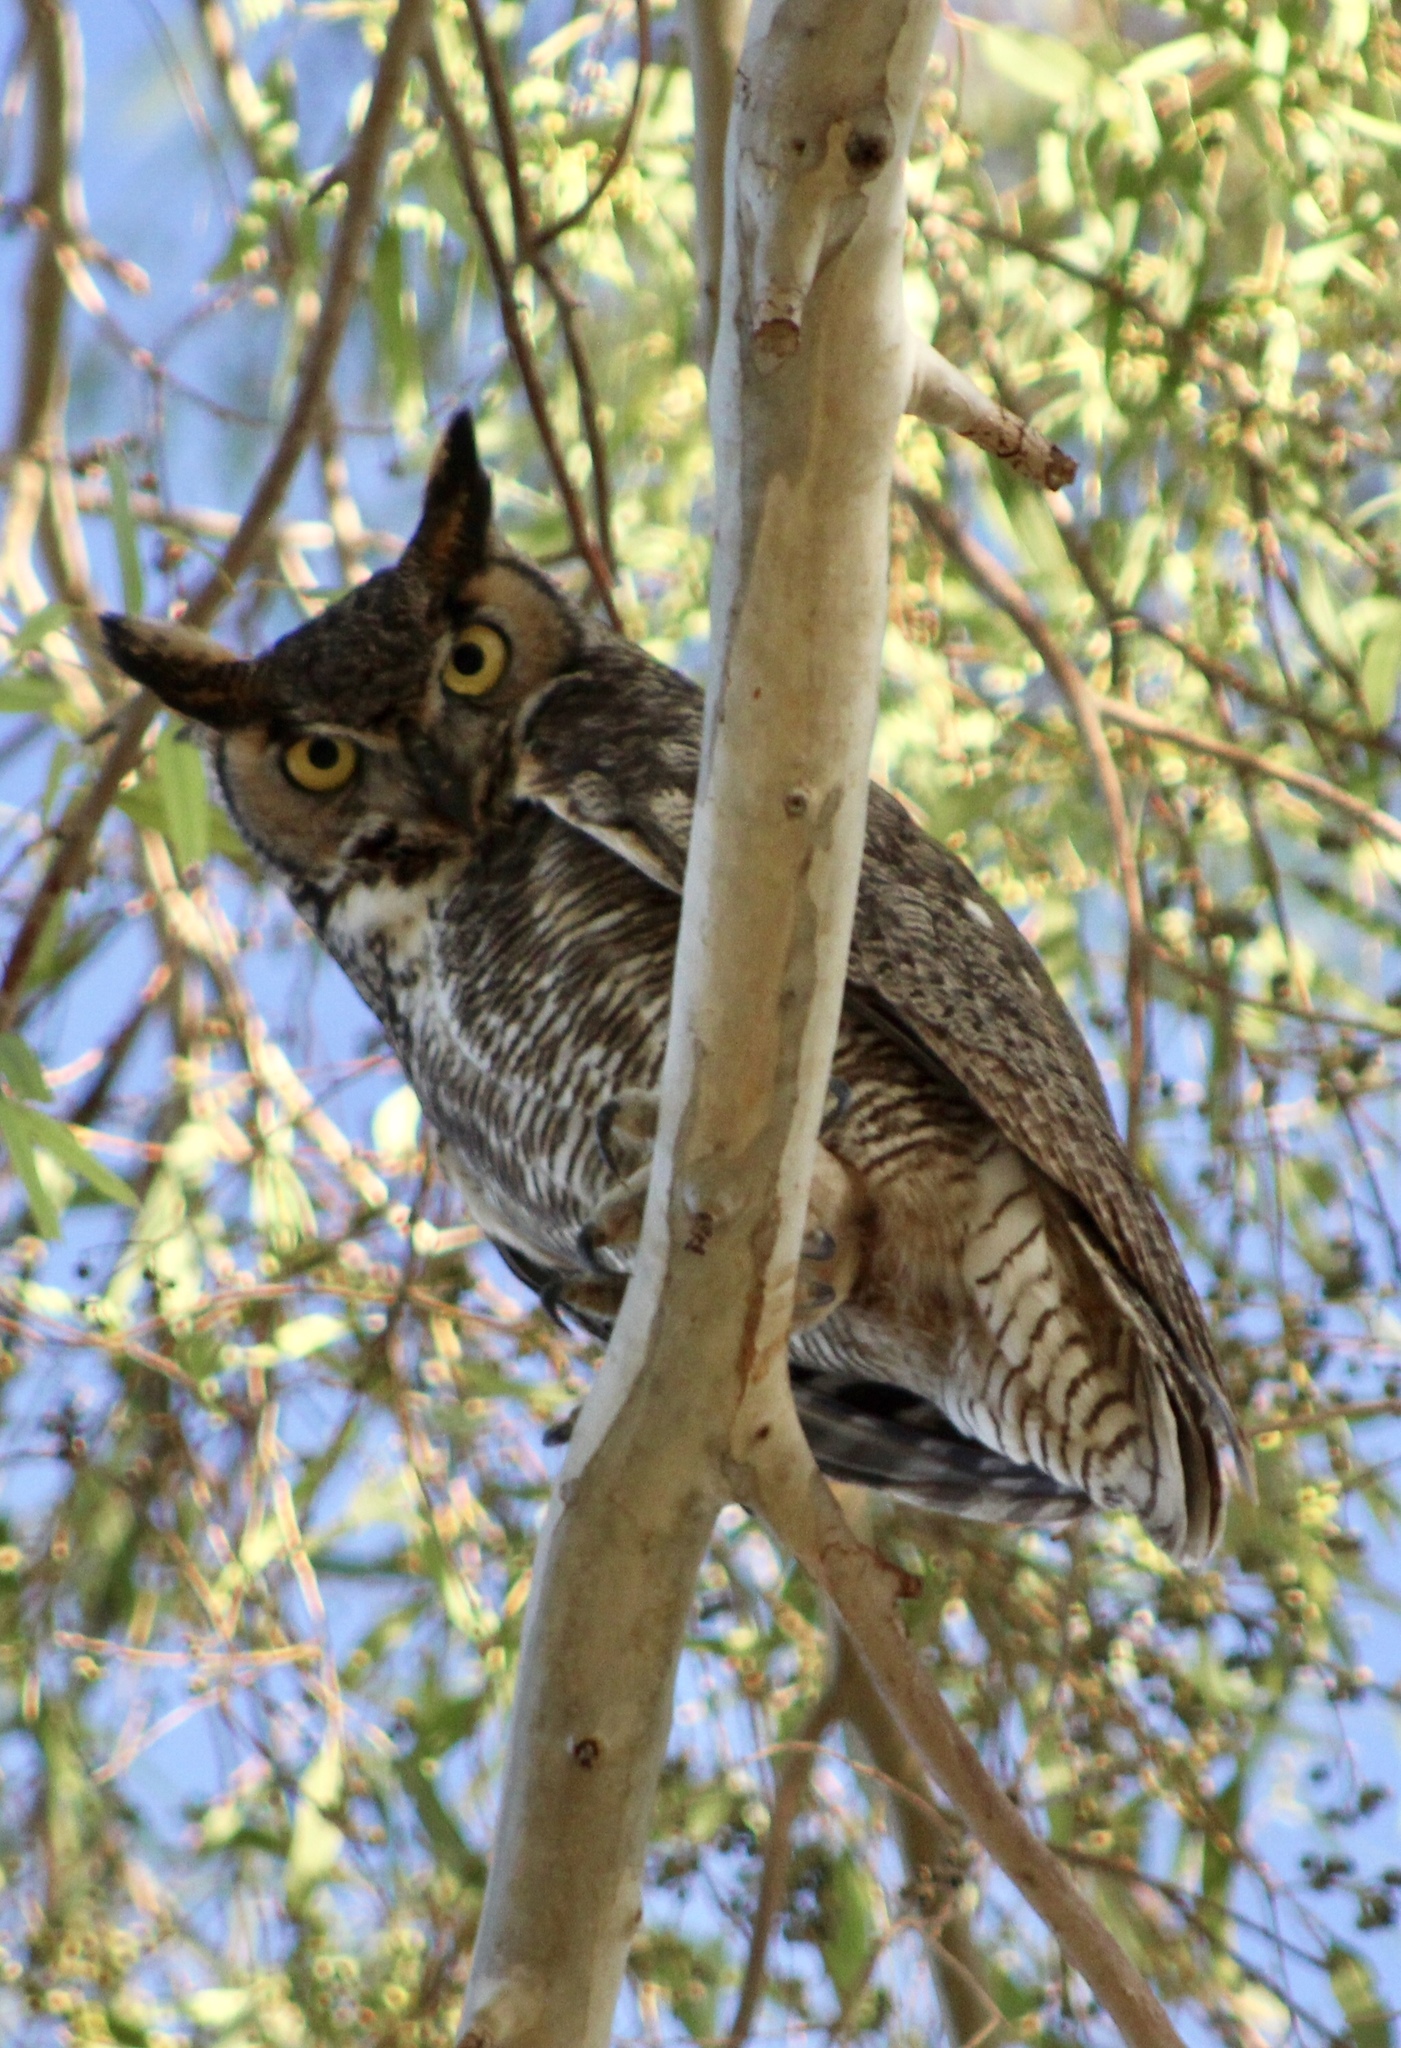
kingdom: Animalia
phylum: Chordata
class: Aves
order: Strigiformes
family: Strigidae
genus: Bubo
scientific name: Bubo virginianus
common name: Great horned owl
